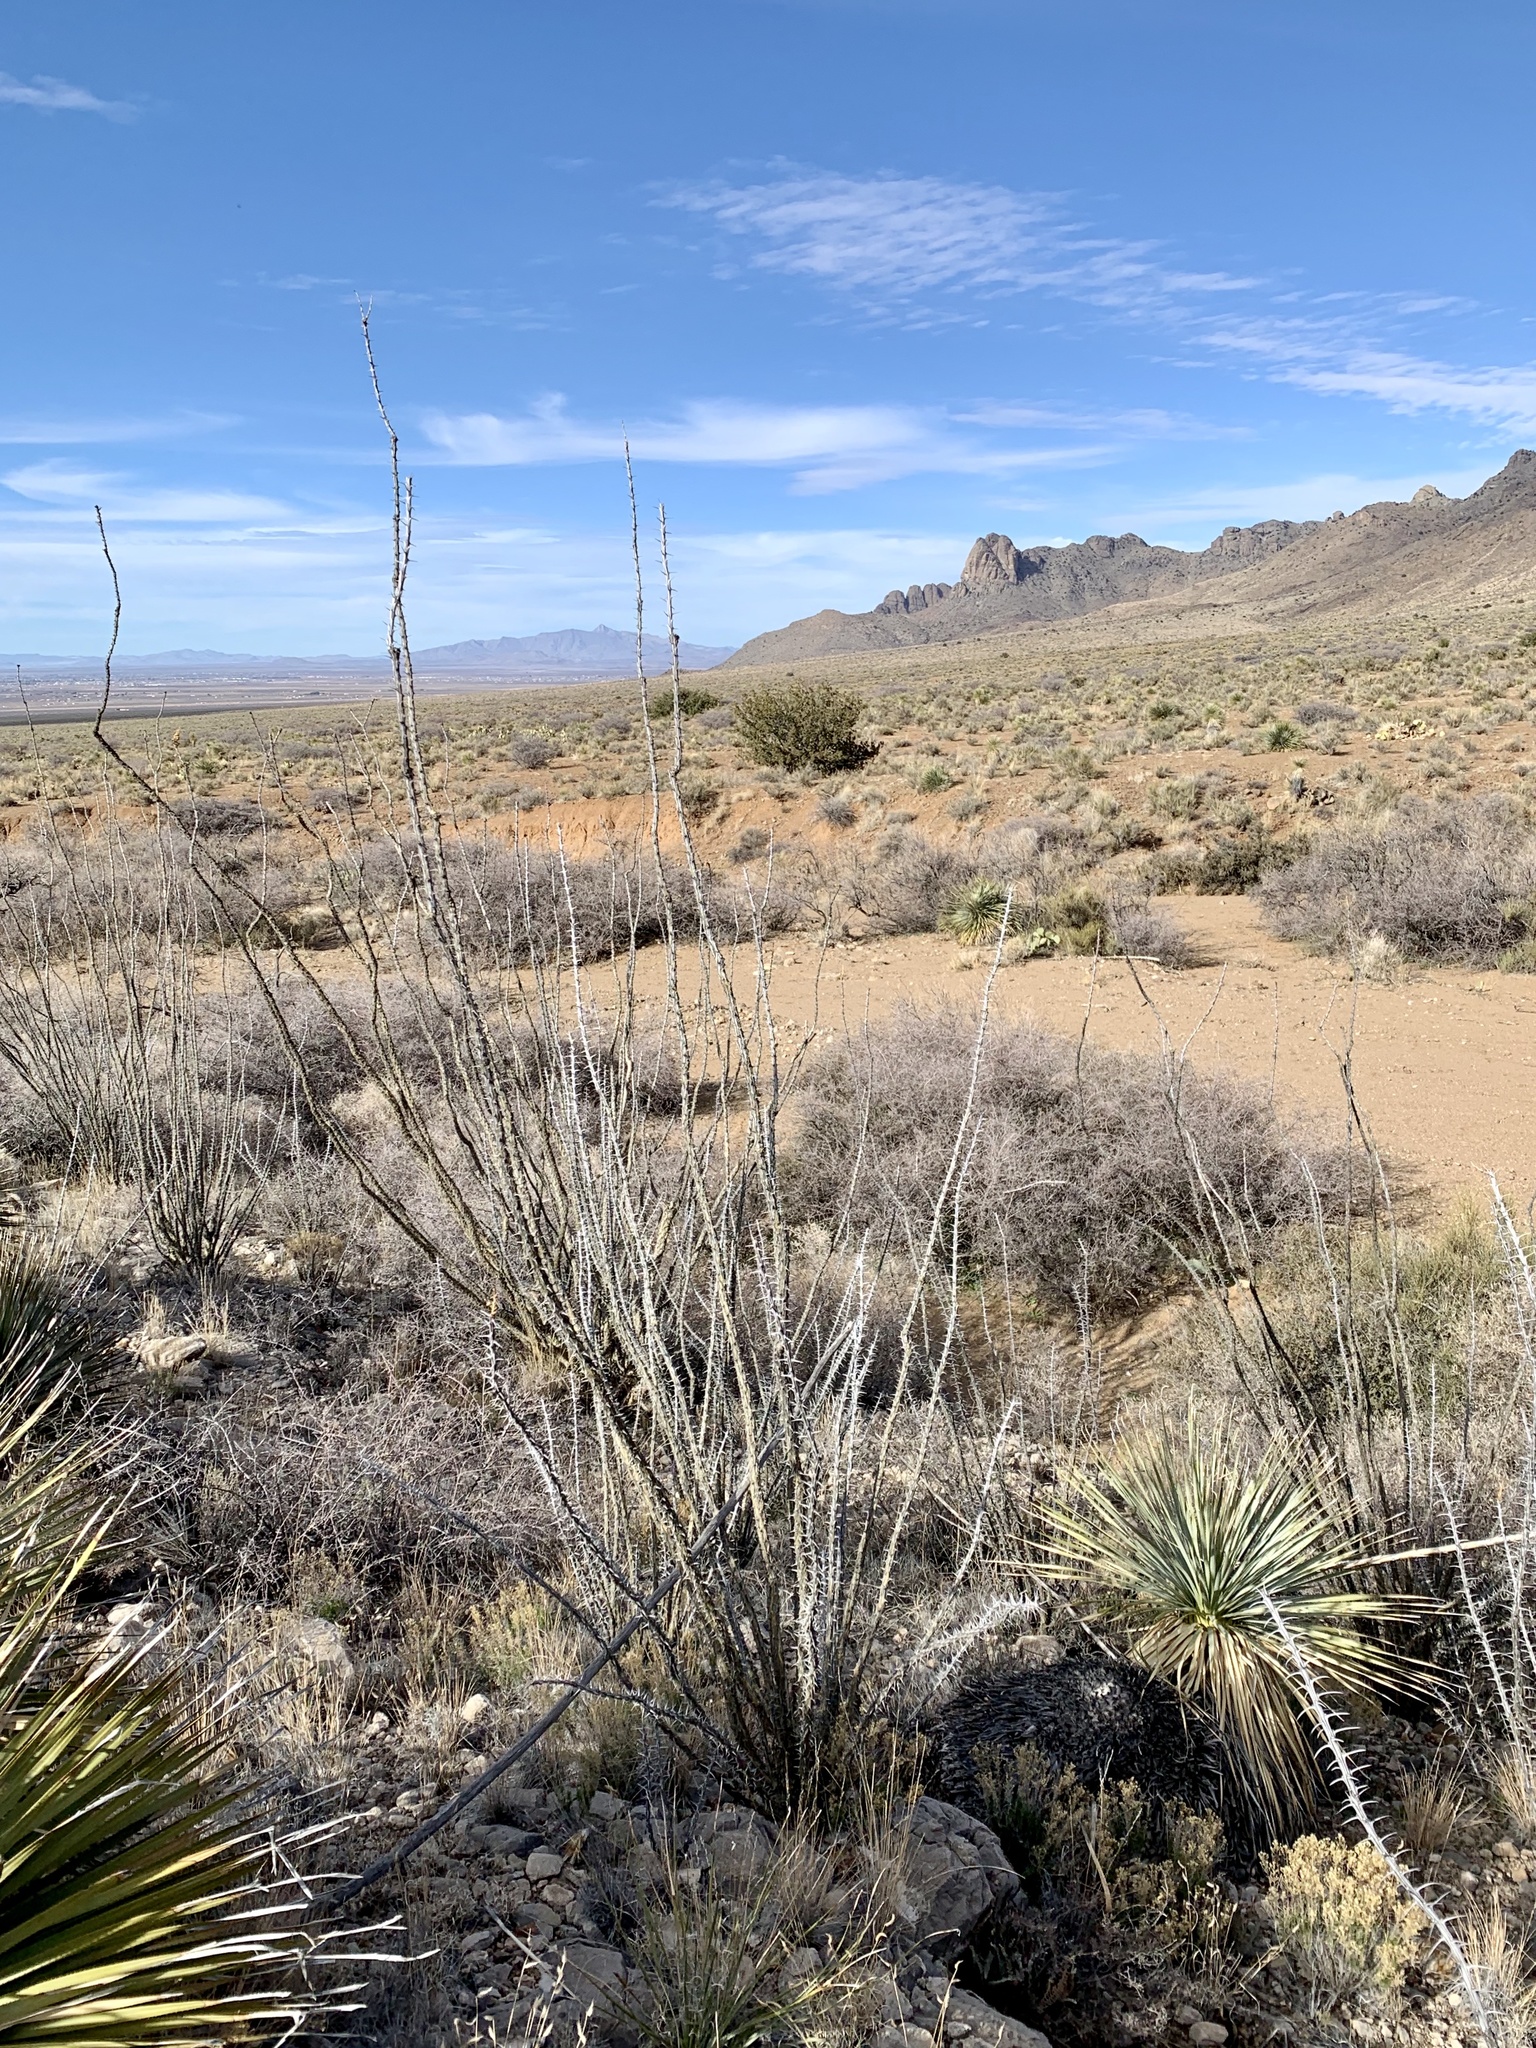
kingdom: Plantae
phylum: Tracheophyta
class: Magnoliopsida
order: Ericales
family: Fouquieriaceae
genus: Fouquieria
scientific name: Fouquieria splendens
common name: Vine-cactus
